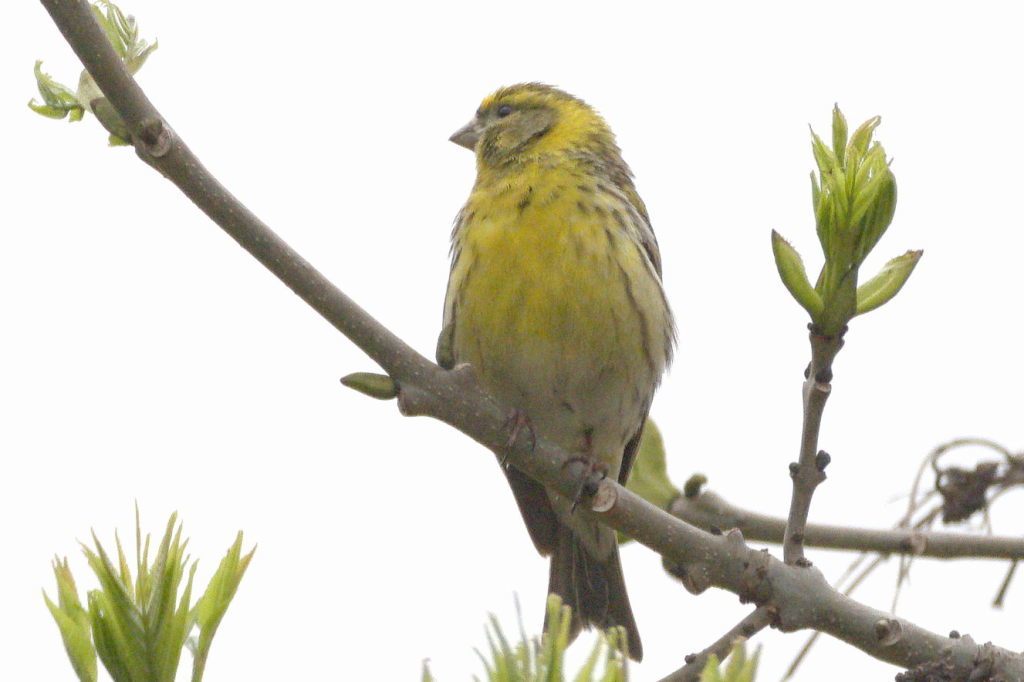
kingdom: Animalia
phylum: Chordata
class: Aves
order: Passeriformes
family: Fringillidae
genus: Serinus
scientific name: Serinus serinus
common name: European serin
